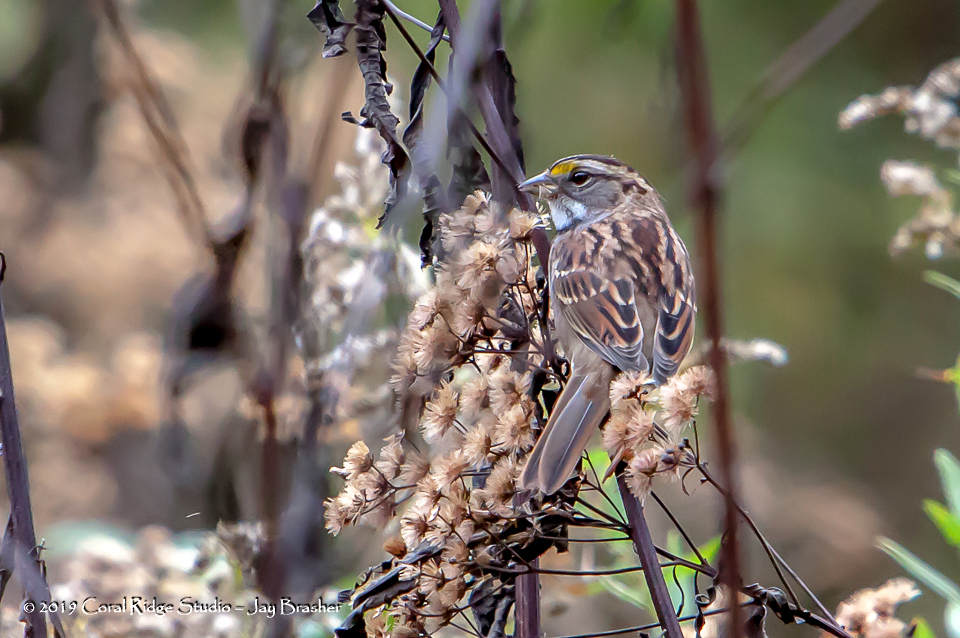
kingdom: Animalia
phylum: Chordata
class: Aves
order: Passeriformes
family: Passerellidae
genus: Zonotrichia
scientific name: Zonotrichia albicollis
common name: White-throated sparrow
